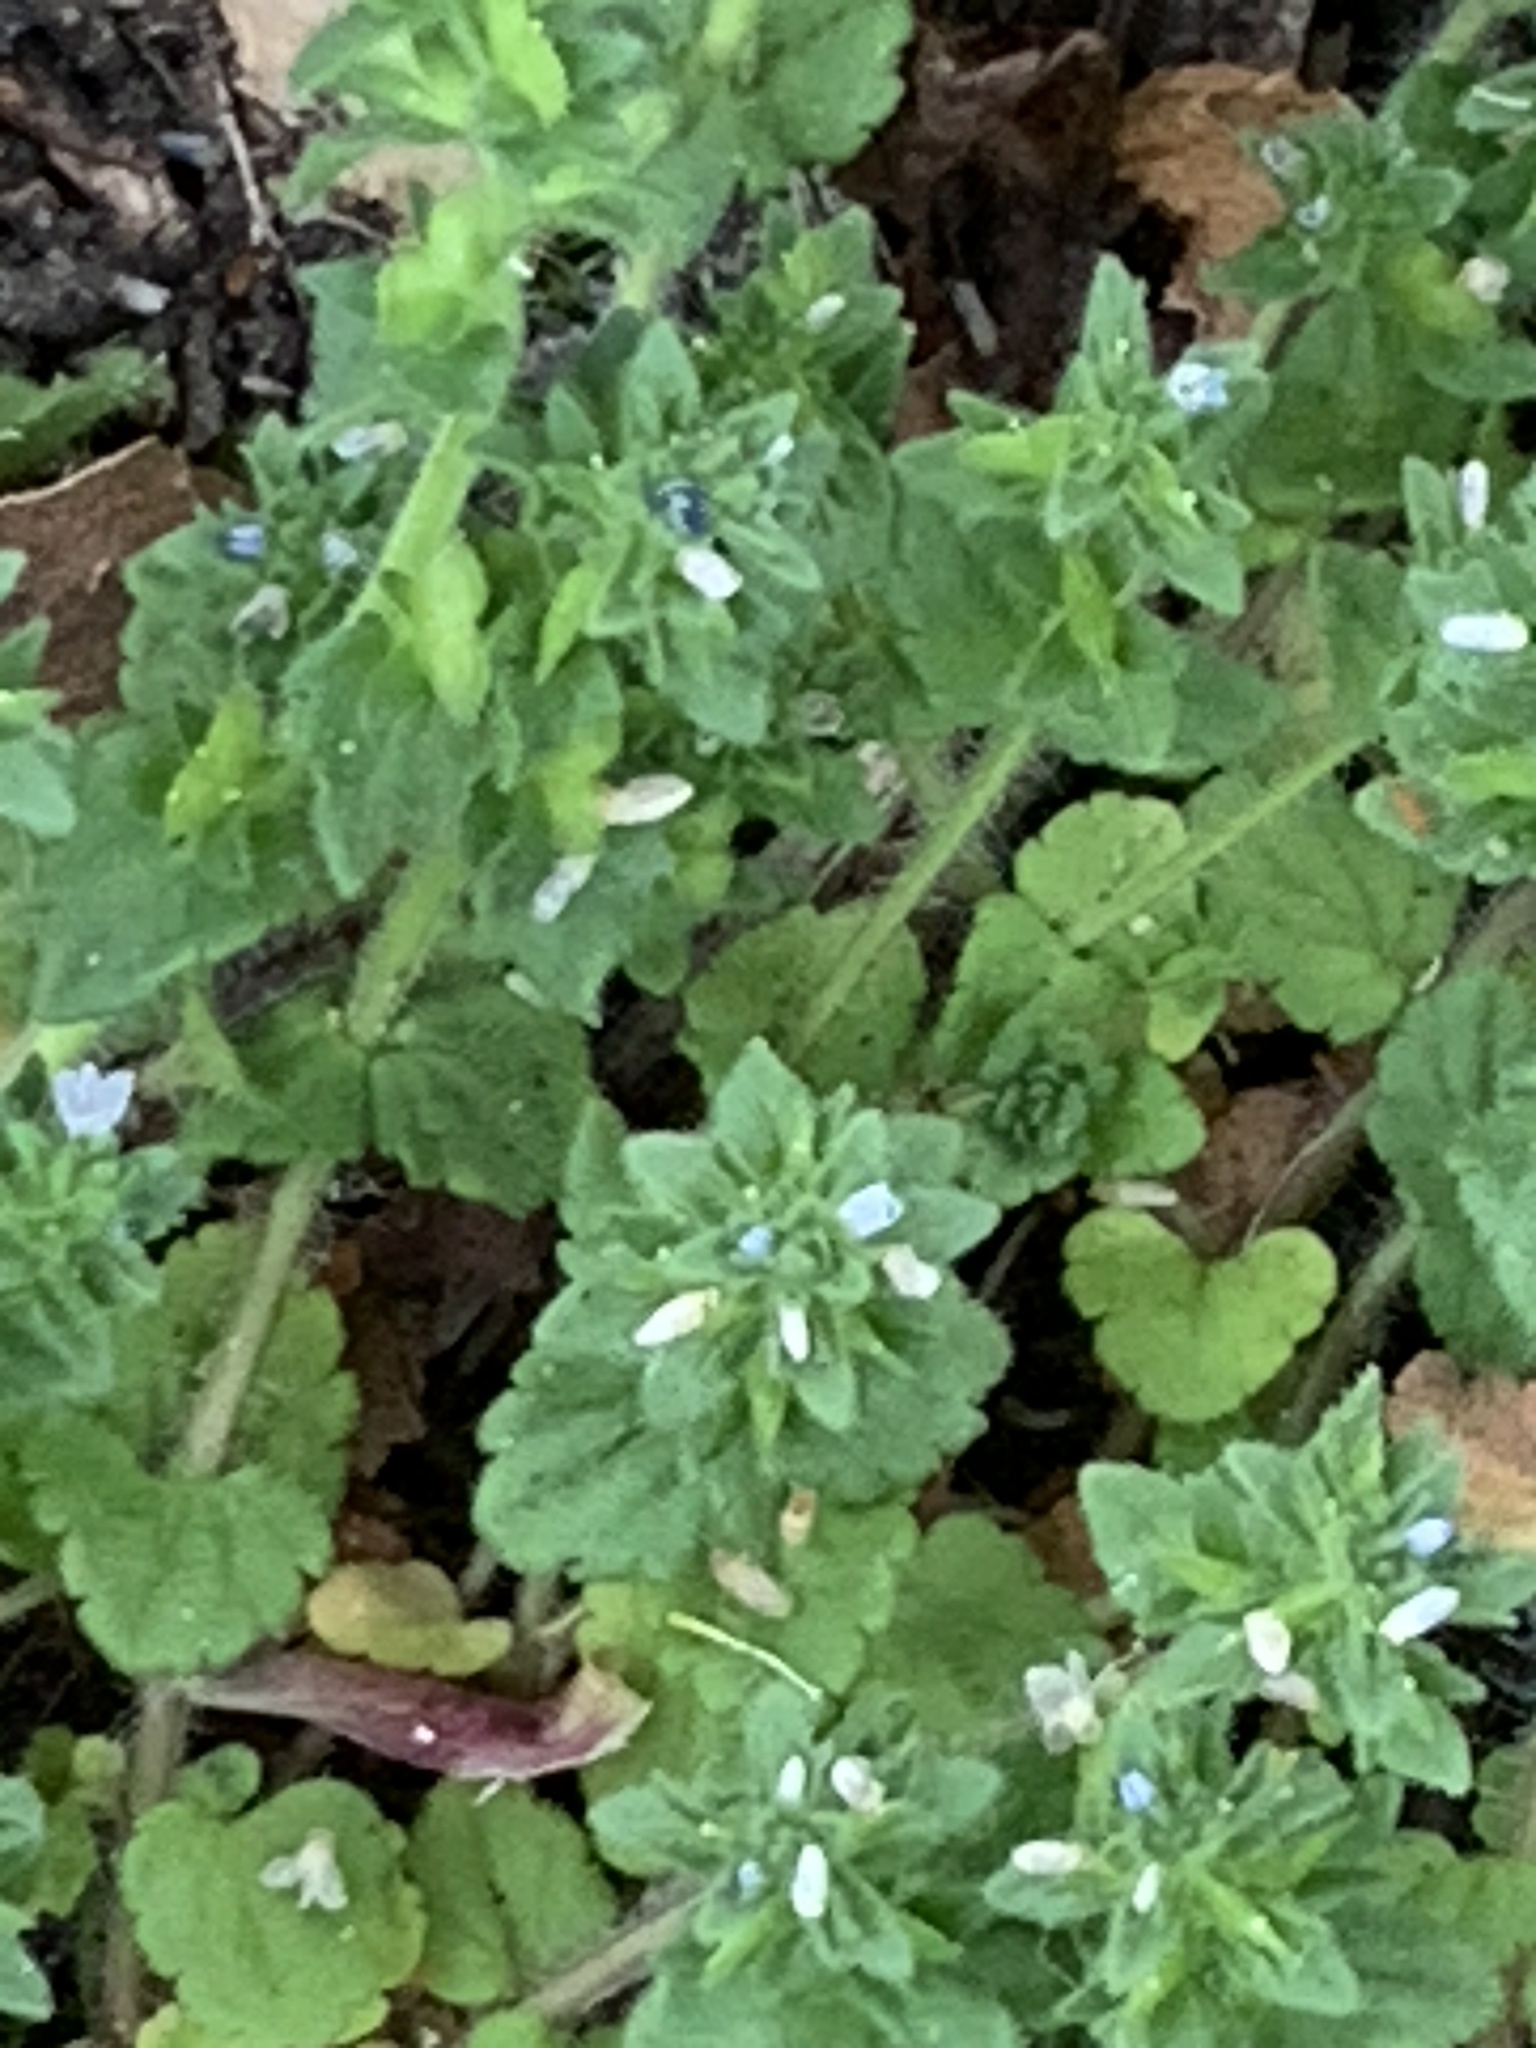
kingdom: Plantae
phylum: Tracheophyta
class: Magnoliopsida
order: Lamiales
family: Plantaginaceae
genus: Veronica
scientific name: Veronica arvensis
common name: Corn speedwell
